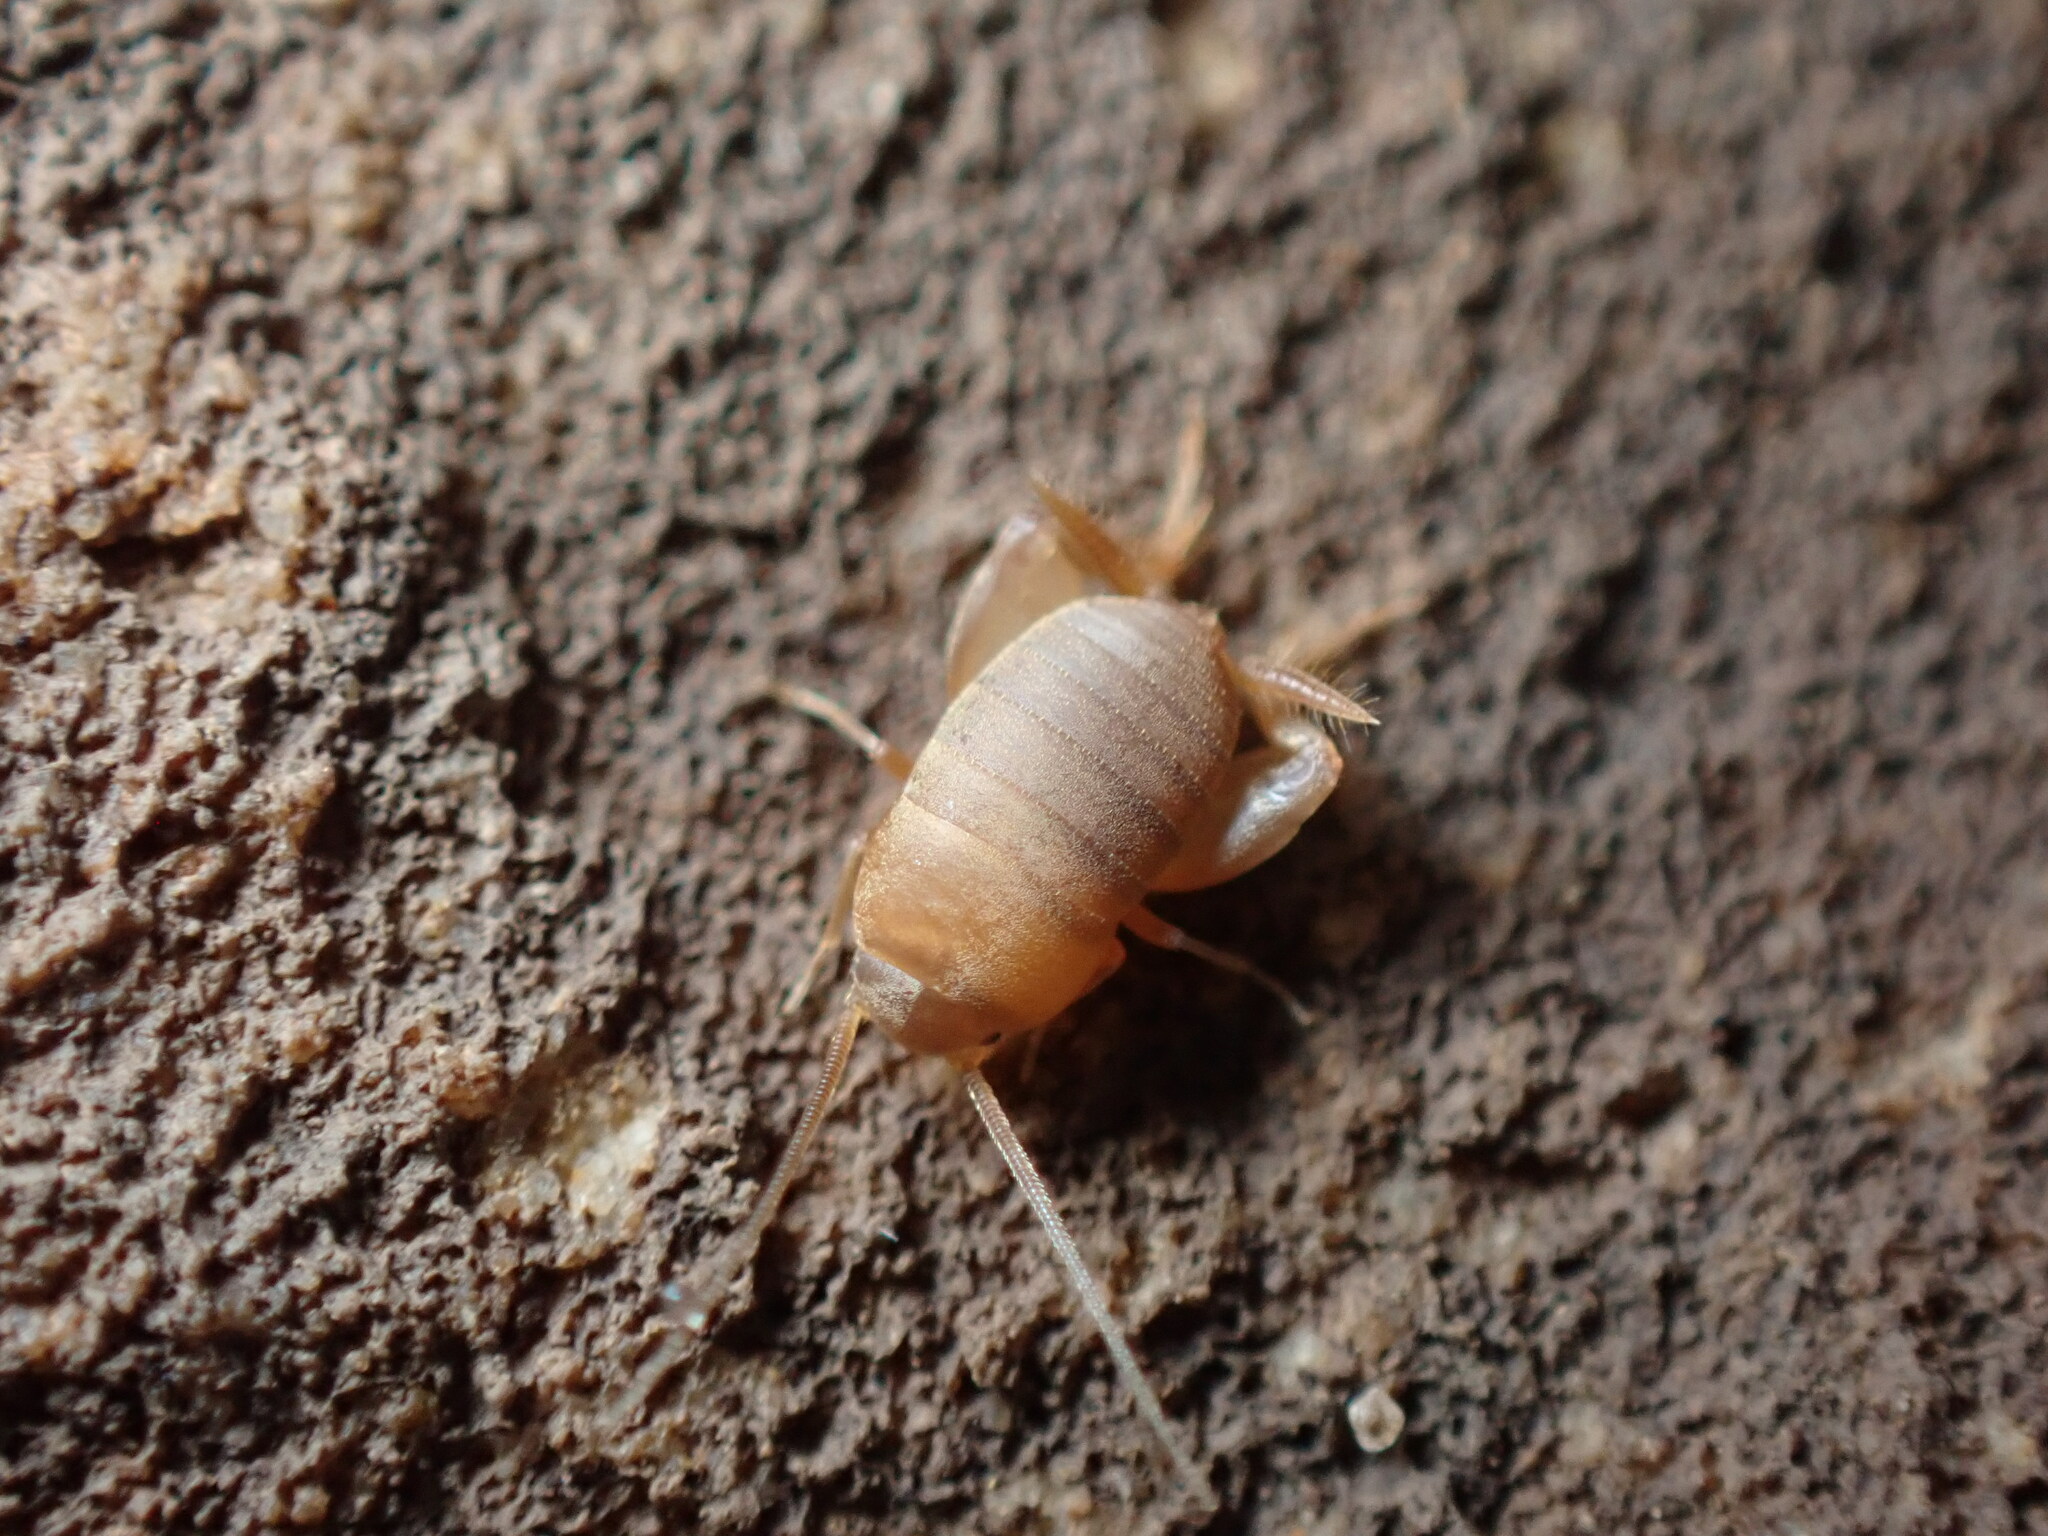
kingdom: Animalia
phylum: Arthropoda
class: Insecta
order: Orthoptera
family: Myrmecophilidae
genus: Myrmecophilus
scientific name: Myrmecophilus nebrascensis
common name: Nebraska ant cricket
